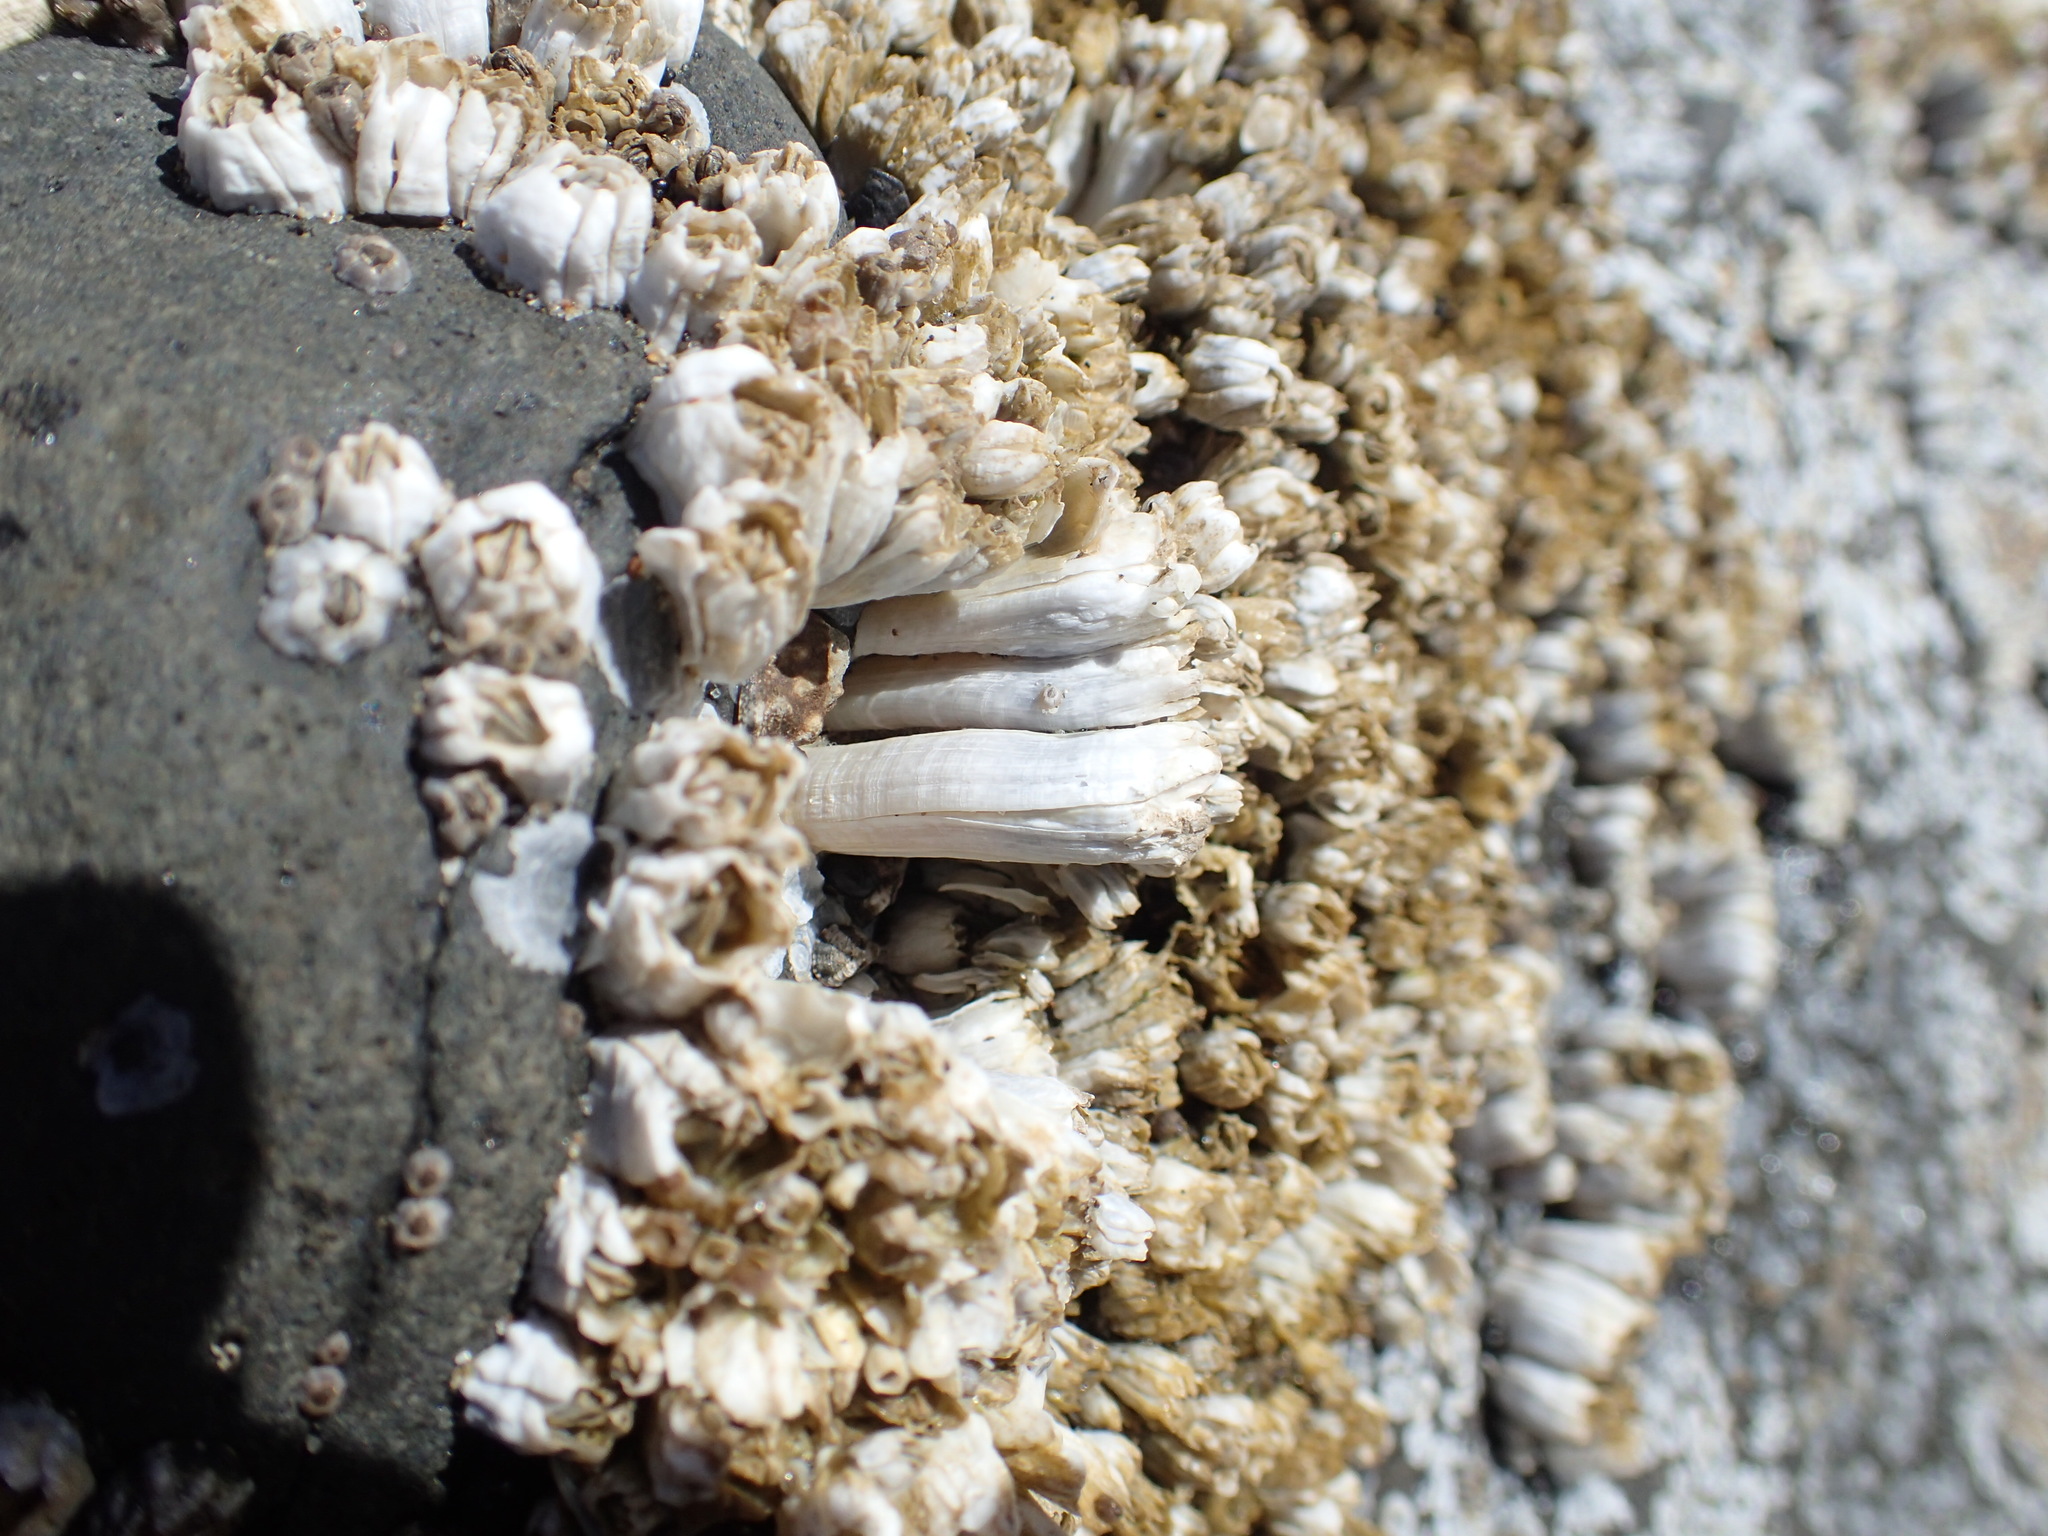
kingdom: Animalia
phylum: Arthropoda
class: Maxillopoda
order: Sessilia
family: Balanidae
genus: Balanus
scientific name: Balanus glandula
